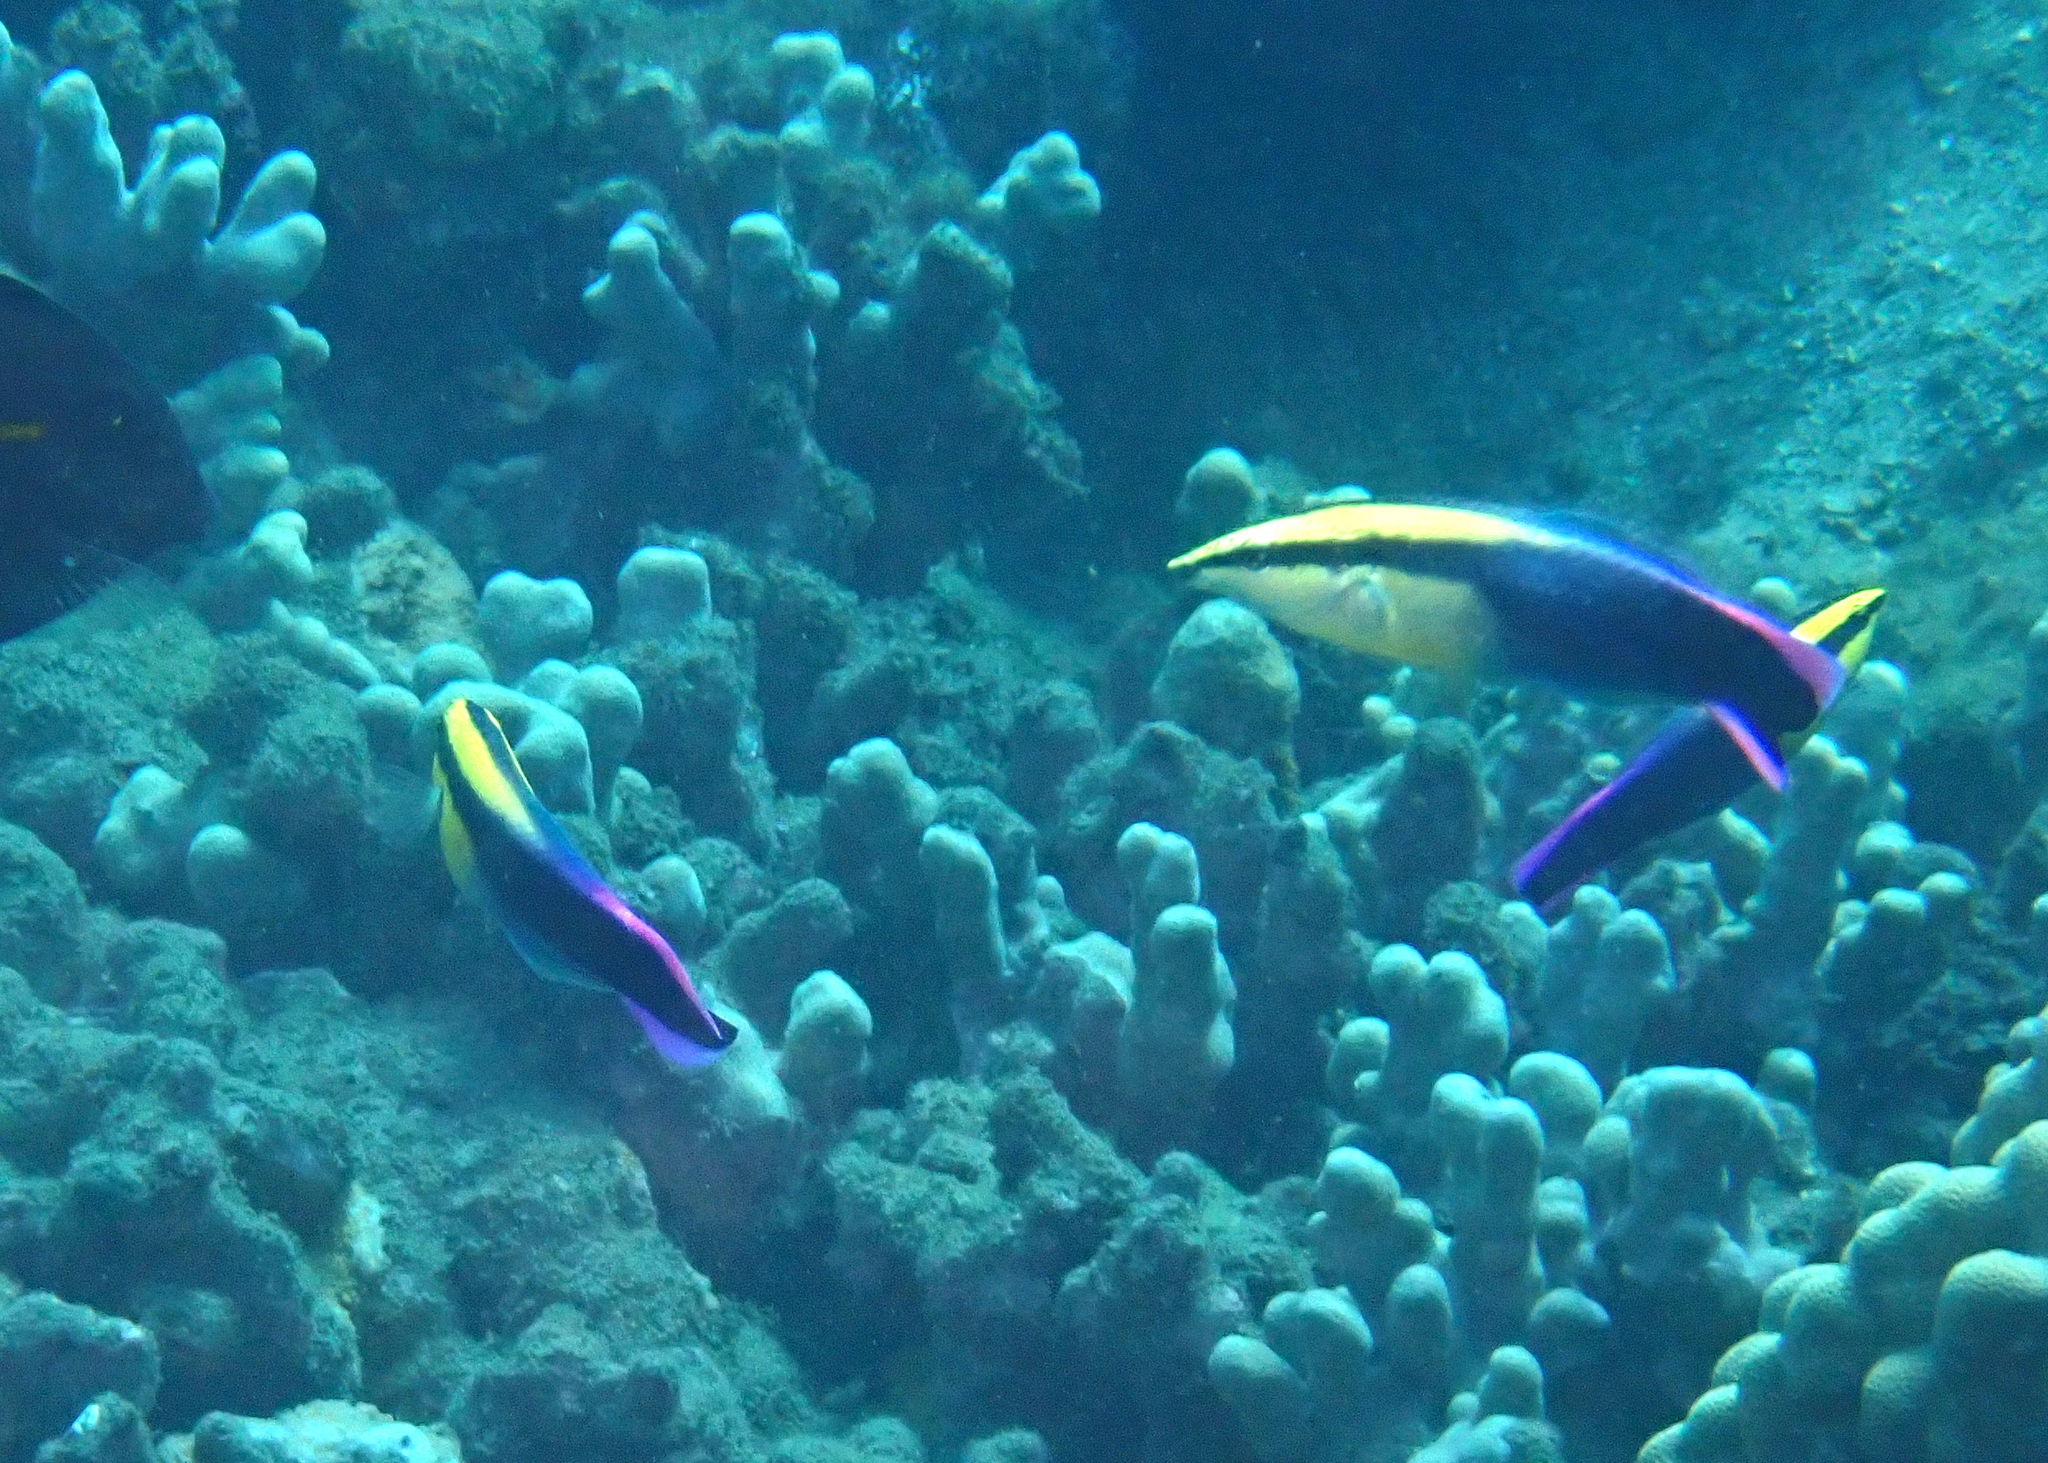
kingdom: Animalia
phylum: Chordata
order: Perciformes
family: Labridae
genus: Labroides
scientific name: Labroides phthirophagus
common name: Cleaner wrasse
